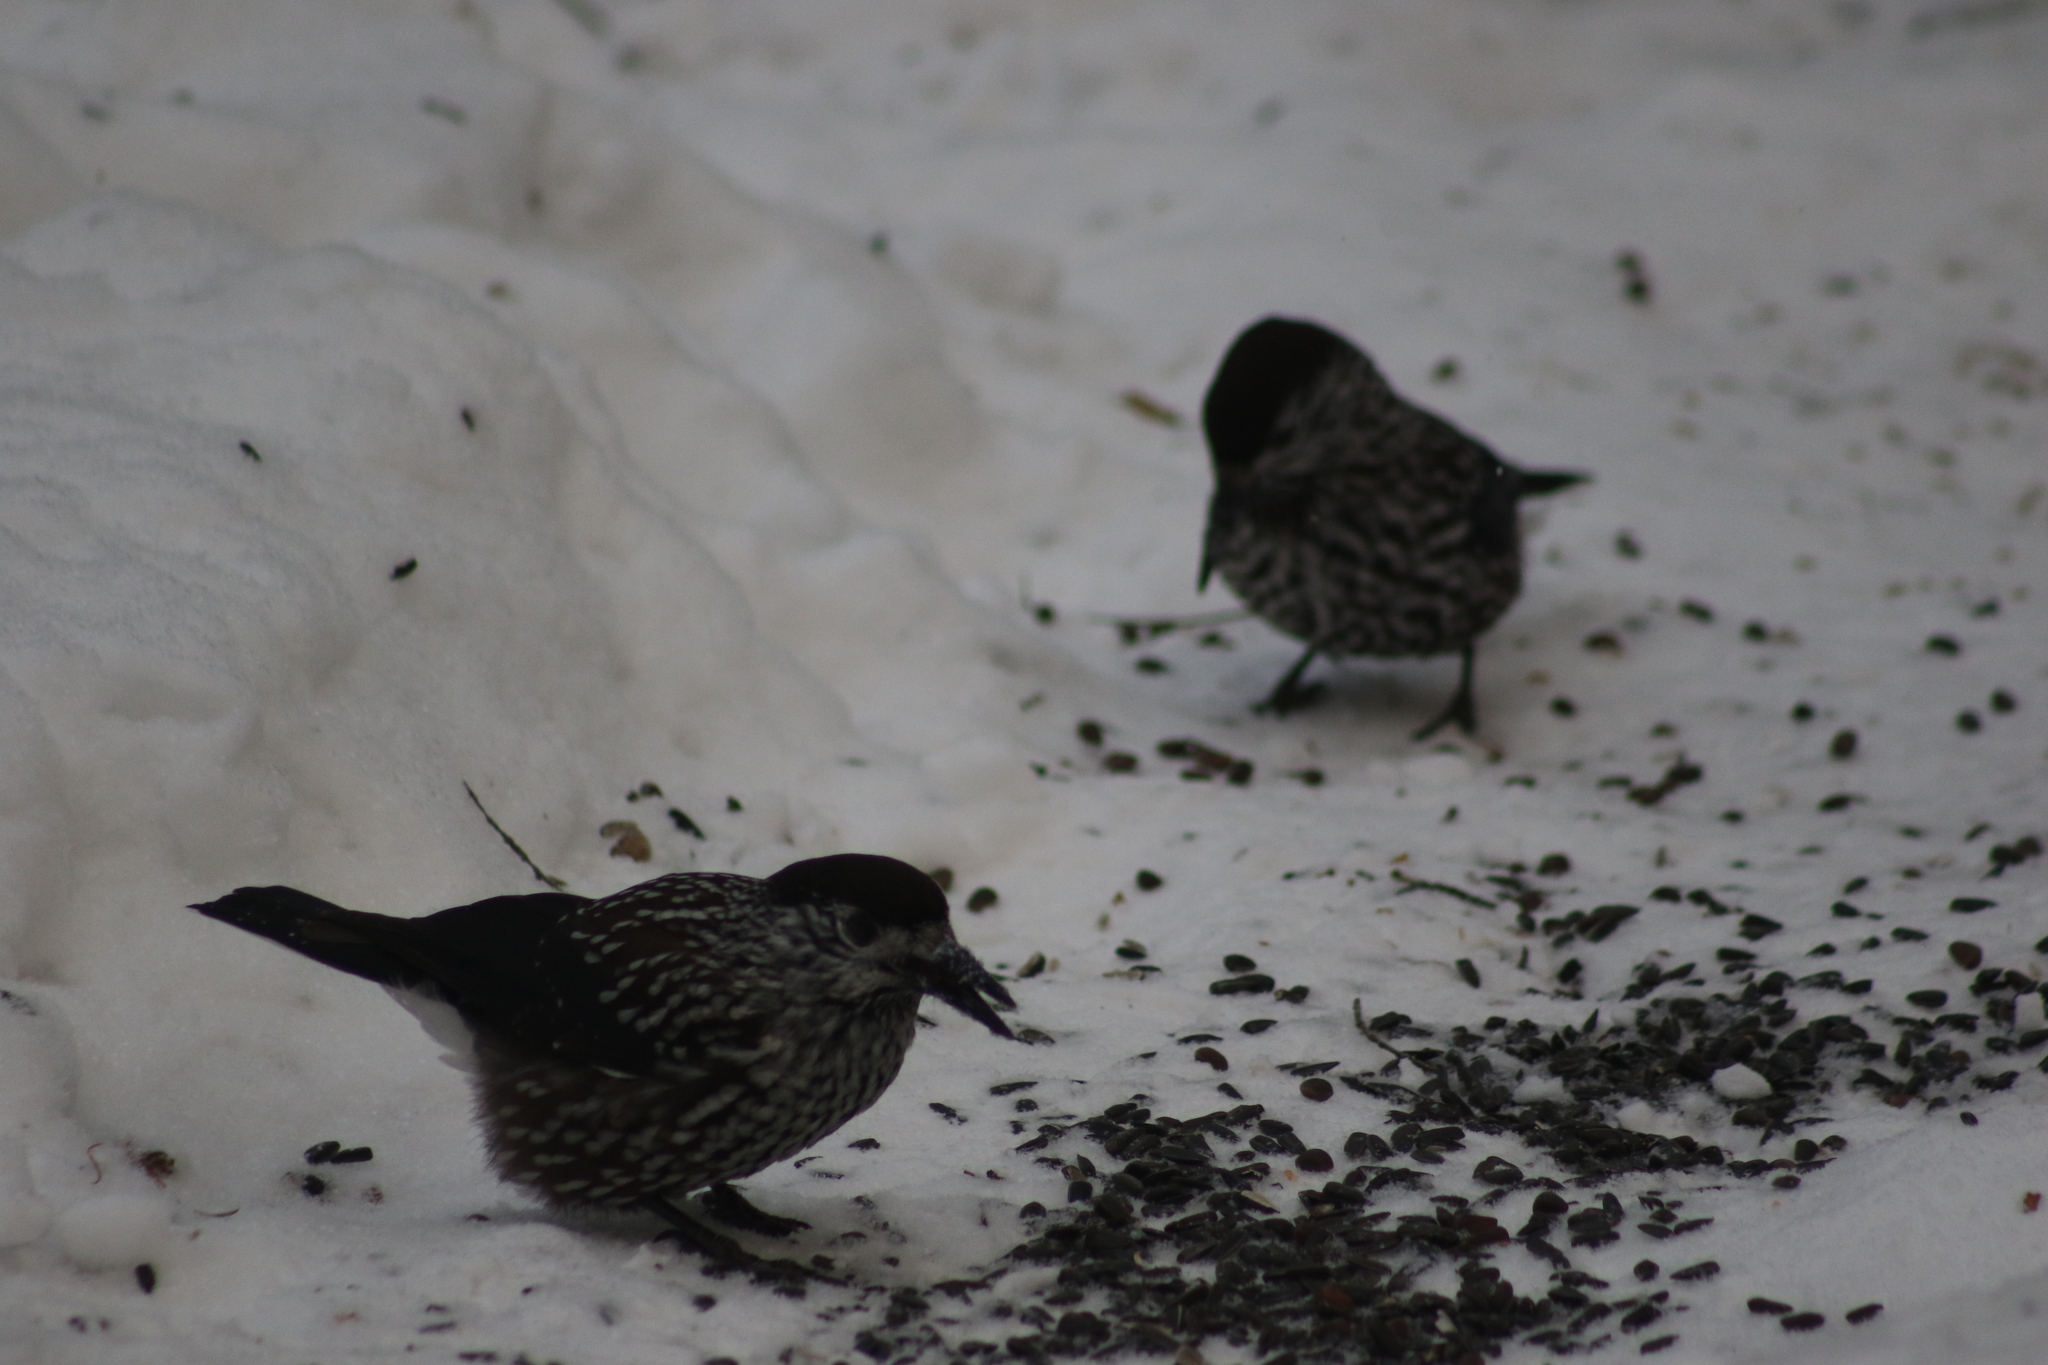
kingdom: Animalia
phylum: Chordata
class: Aves
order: Passeriformes
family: Corvidae
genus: Nucifraga
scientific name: Nucifraga caryocatactes
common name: Spotted nutcracker
